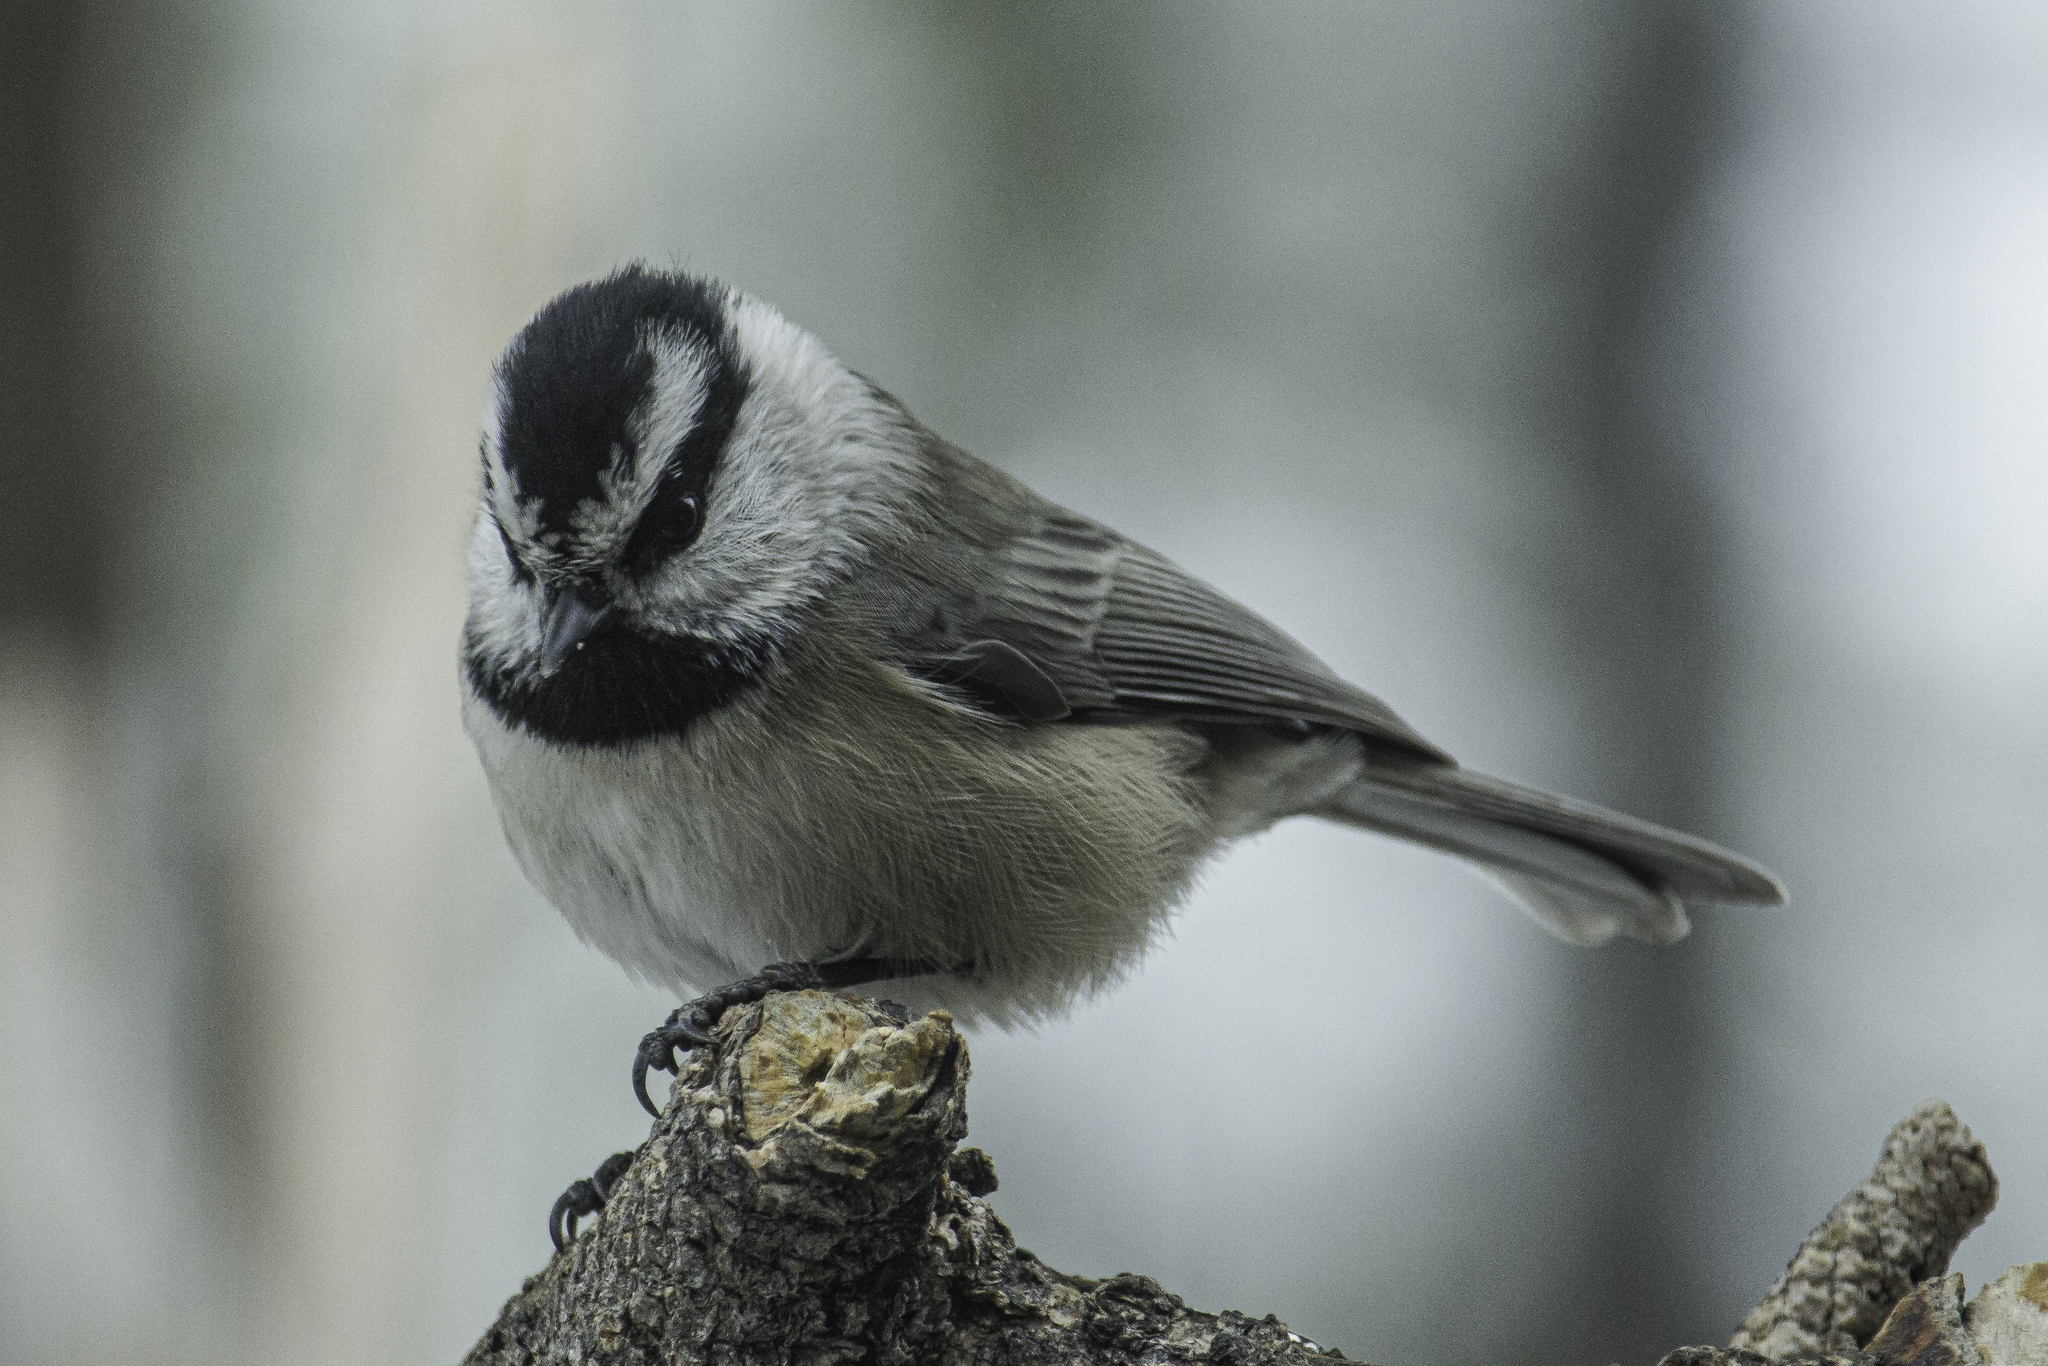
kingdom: Animalia
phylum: Chordata
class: Aves
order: Passeriformes
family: Paridae
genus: Poecile
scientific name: Poecile gambeli
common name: Mountain chickadee
